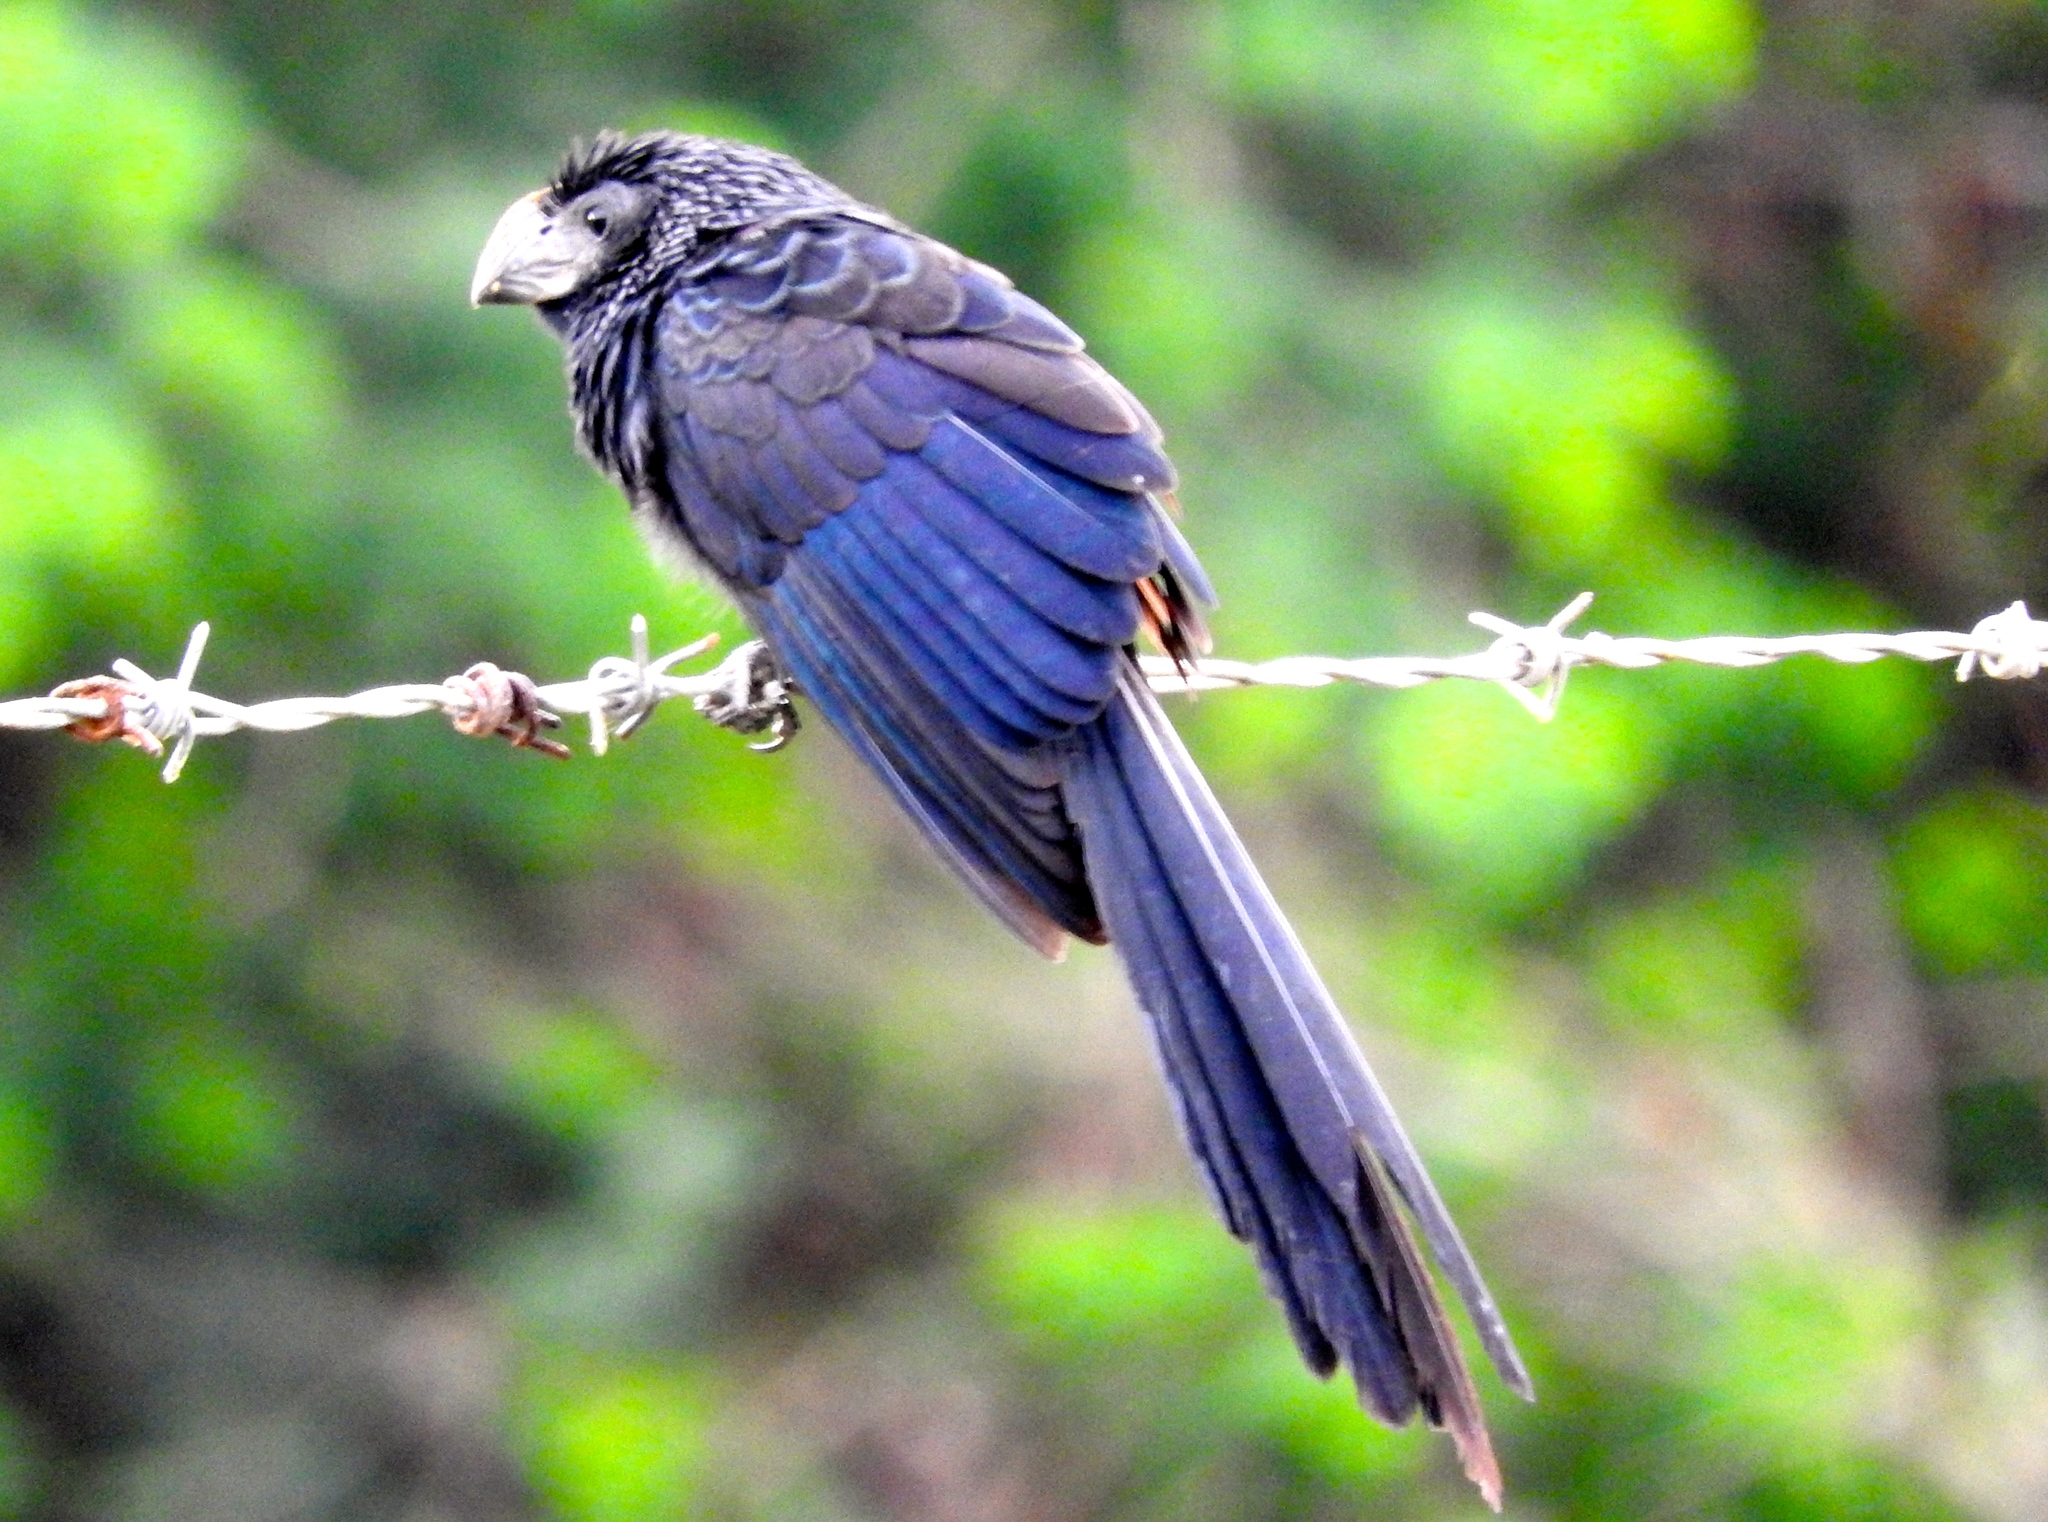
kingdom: Animalia
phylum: Chordata
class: Aves
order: Cuculiformes
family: Cuculidae
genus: Crotophaga
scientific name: Crotophaga sulcirostris
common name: Groove-billed ani
